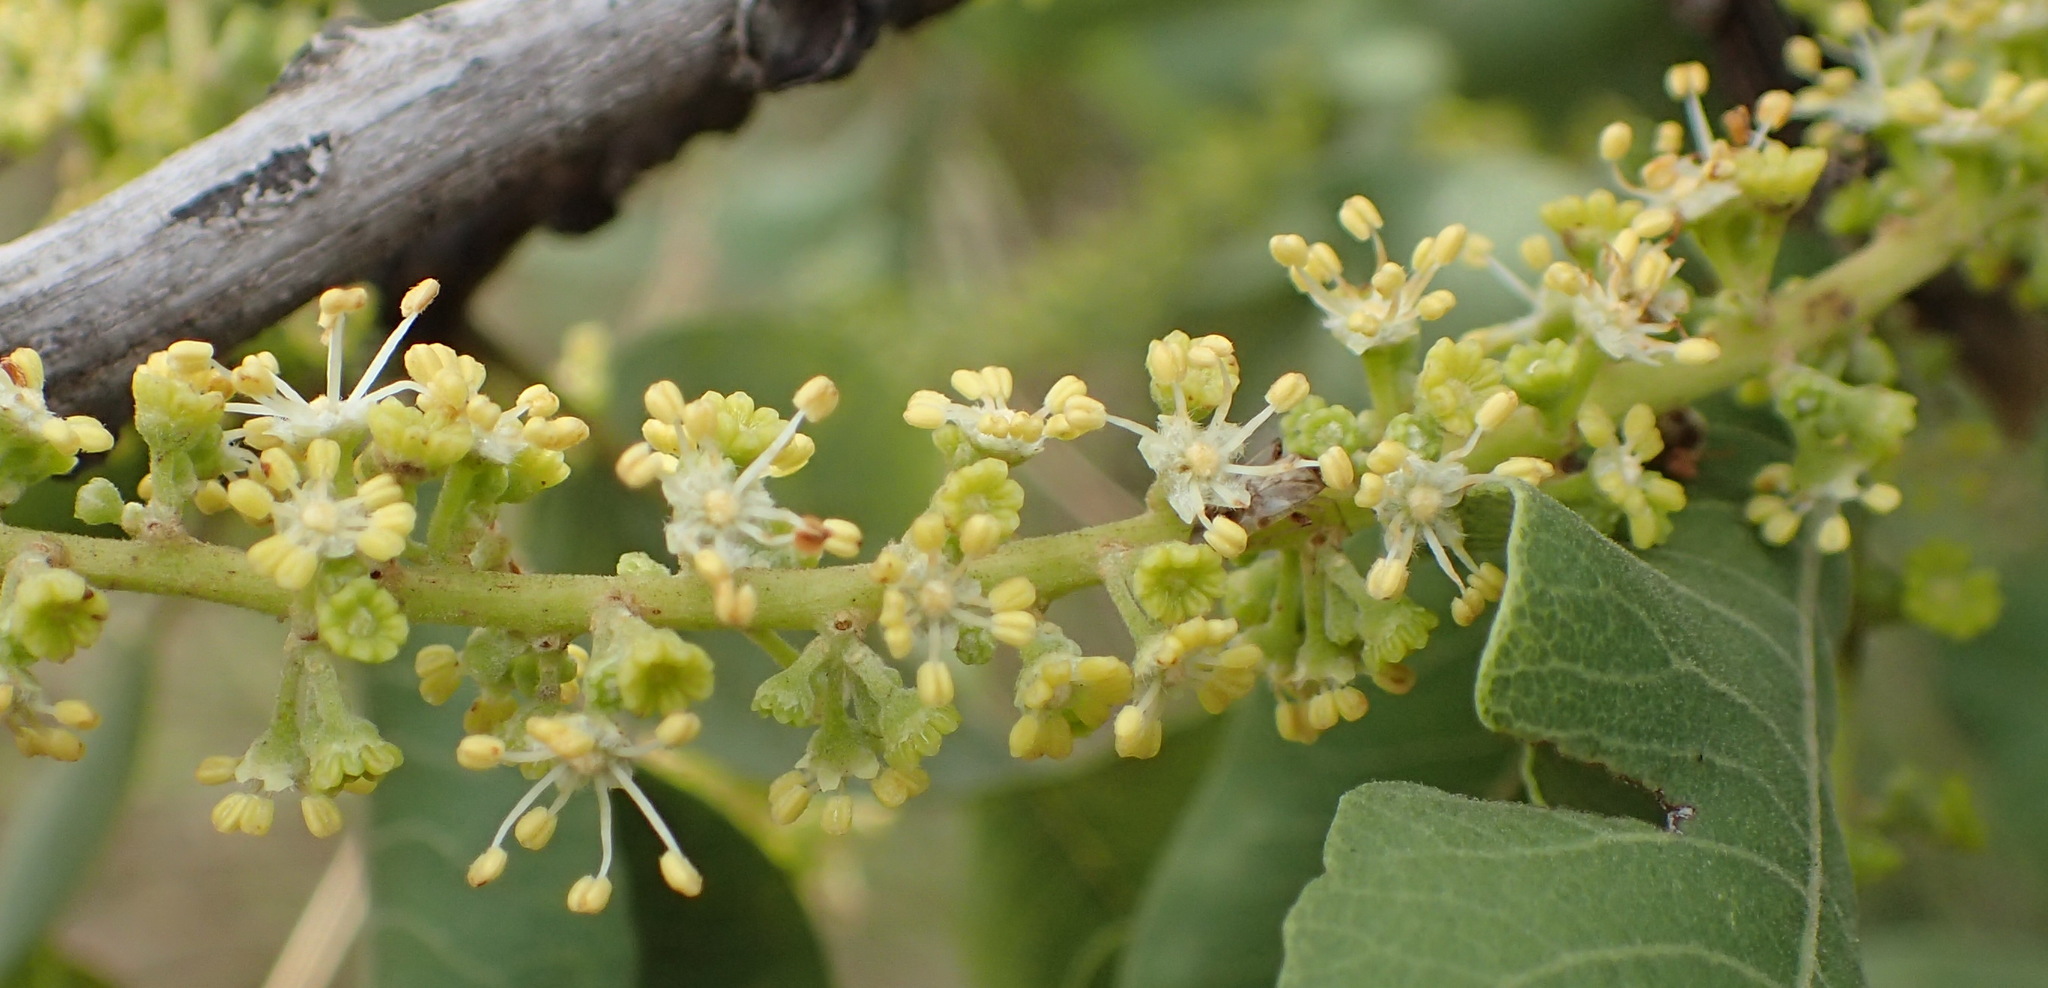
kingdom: Plantae
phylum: Tracheophyta
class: Magnoliopsida
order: Sapindales
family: Sapindaceae
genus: Pappea
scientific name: Pappea capensis
